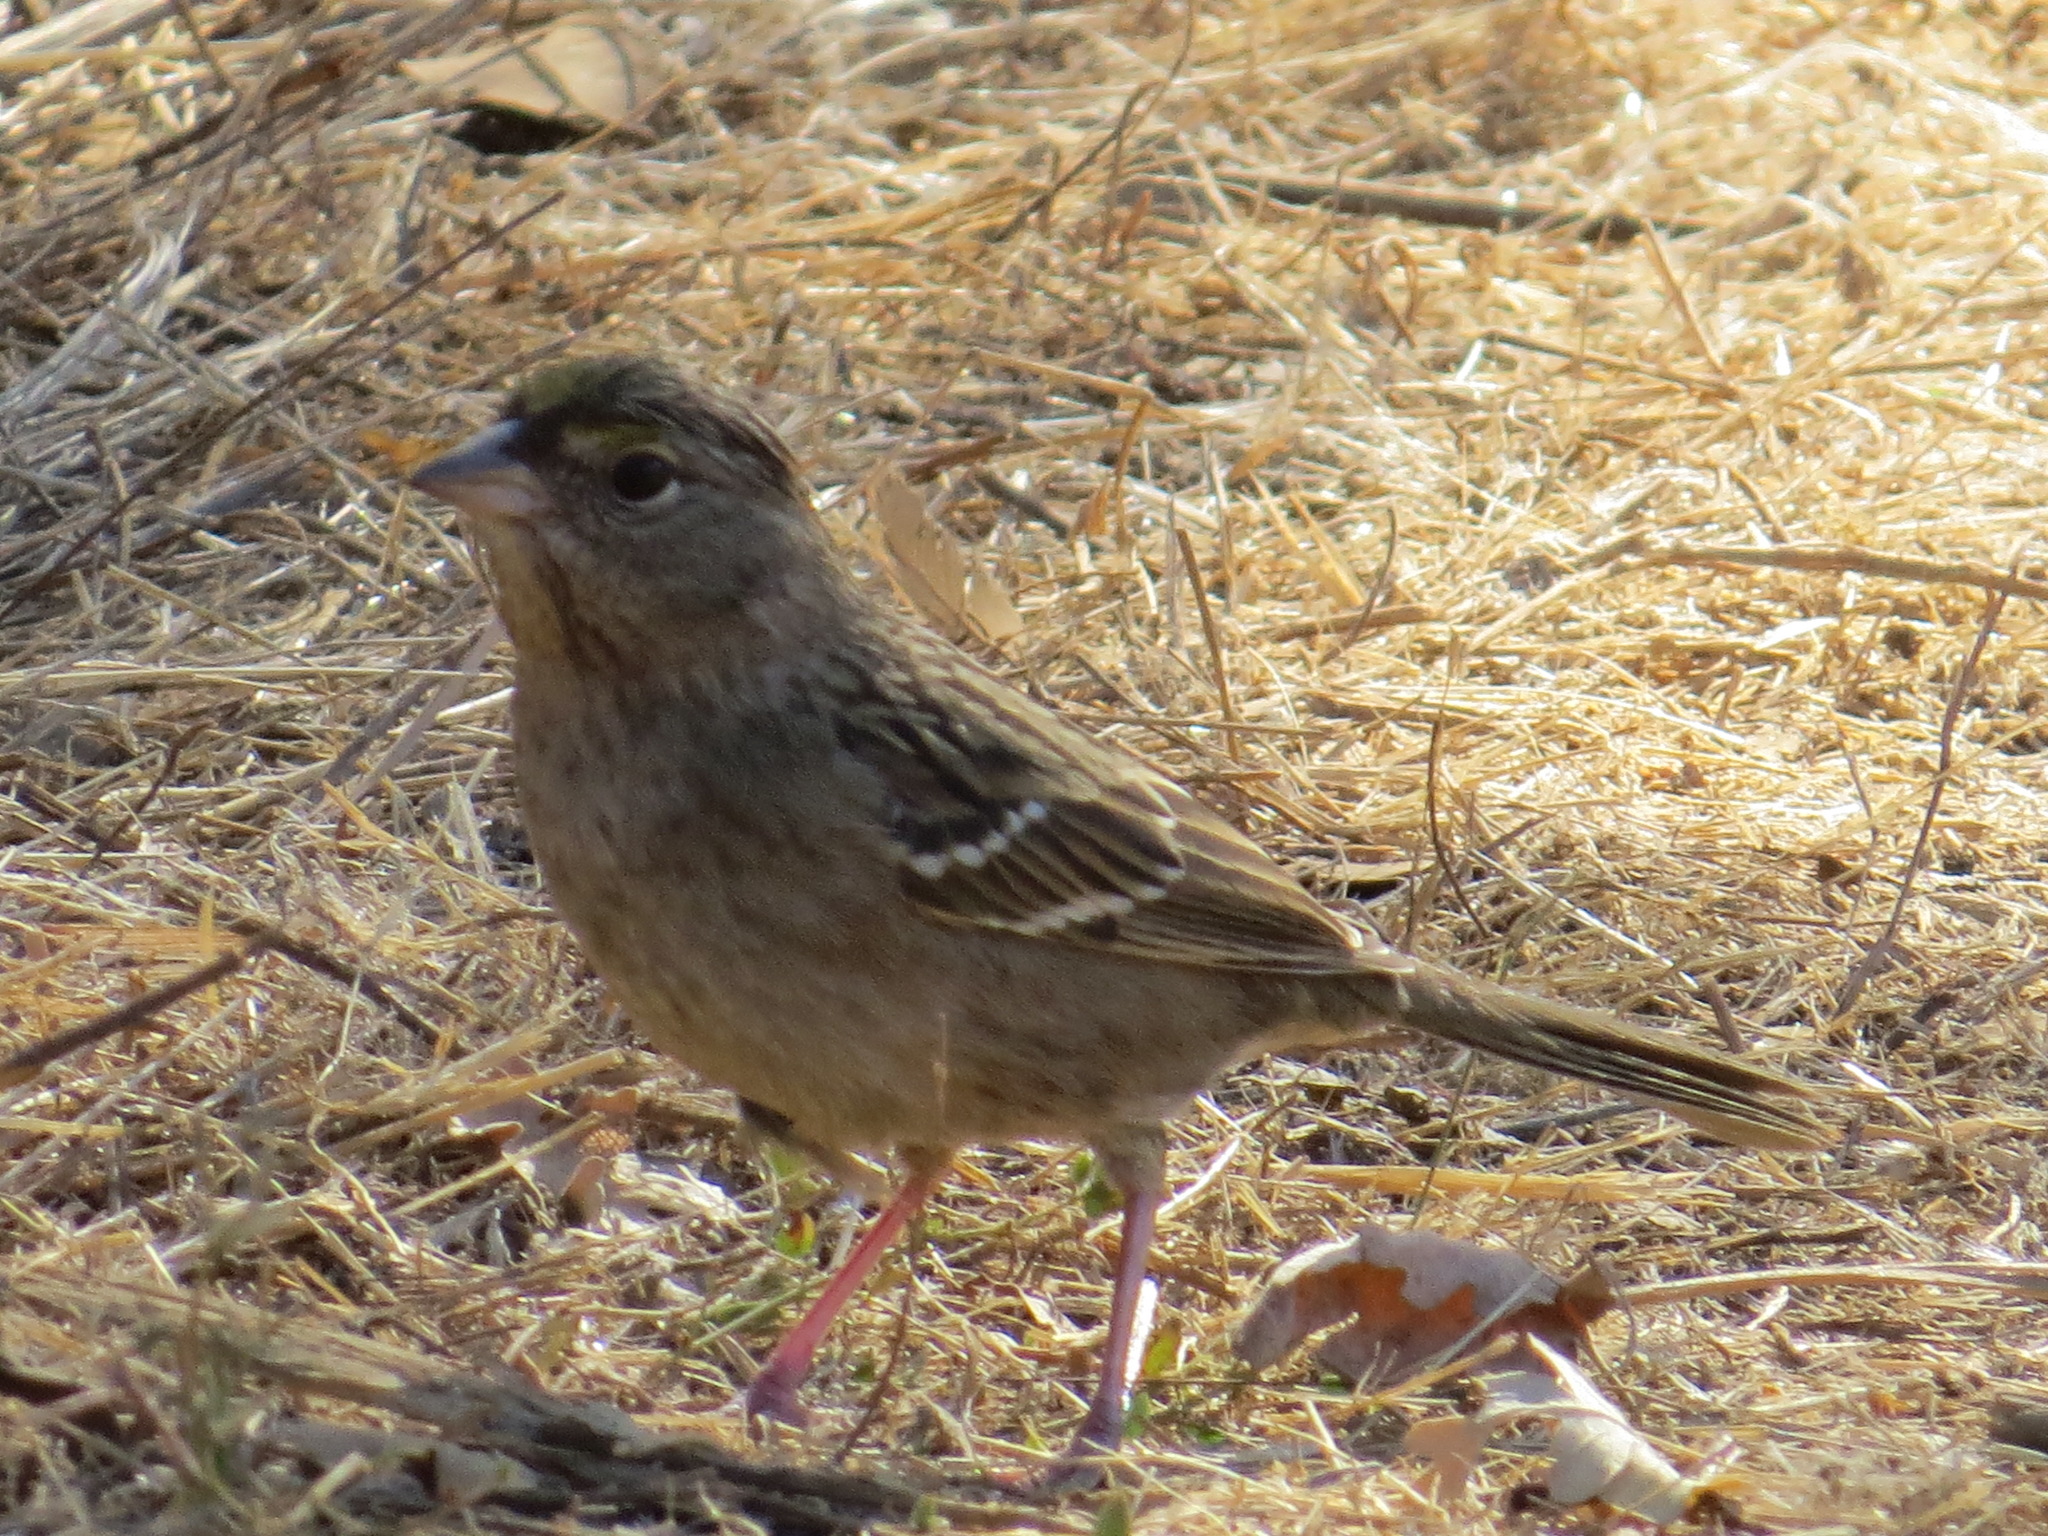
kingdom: Animalia
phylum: Chordata
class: Aves
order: Passeriformes
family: Passerellidae
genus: Zonotrichia
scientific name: Zonotrichia atricapilla
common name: Golden-crowned sparrow
